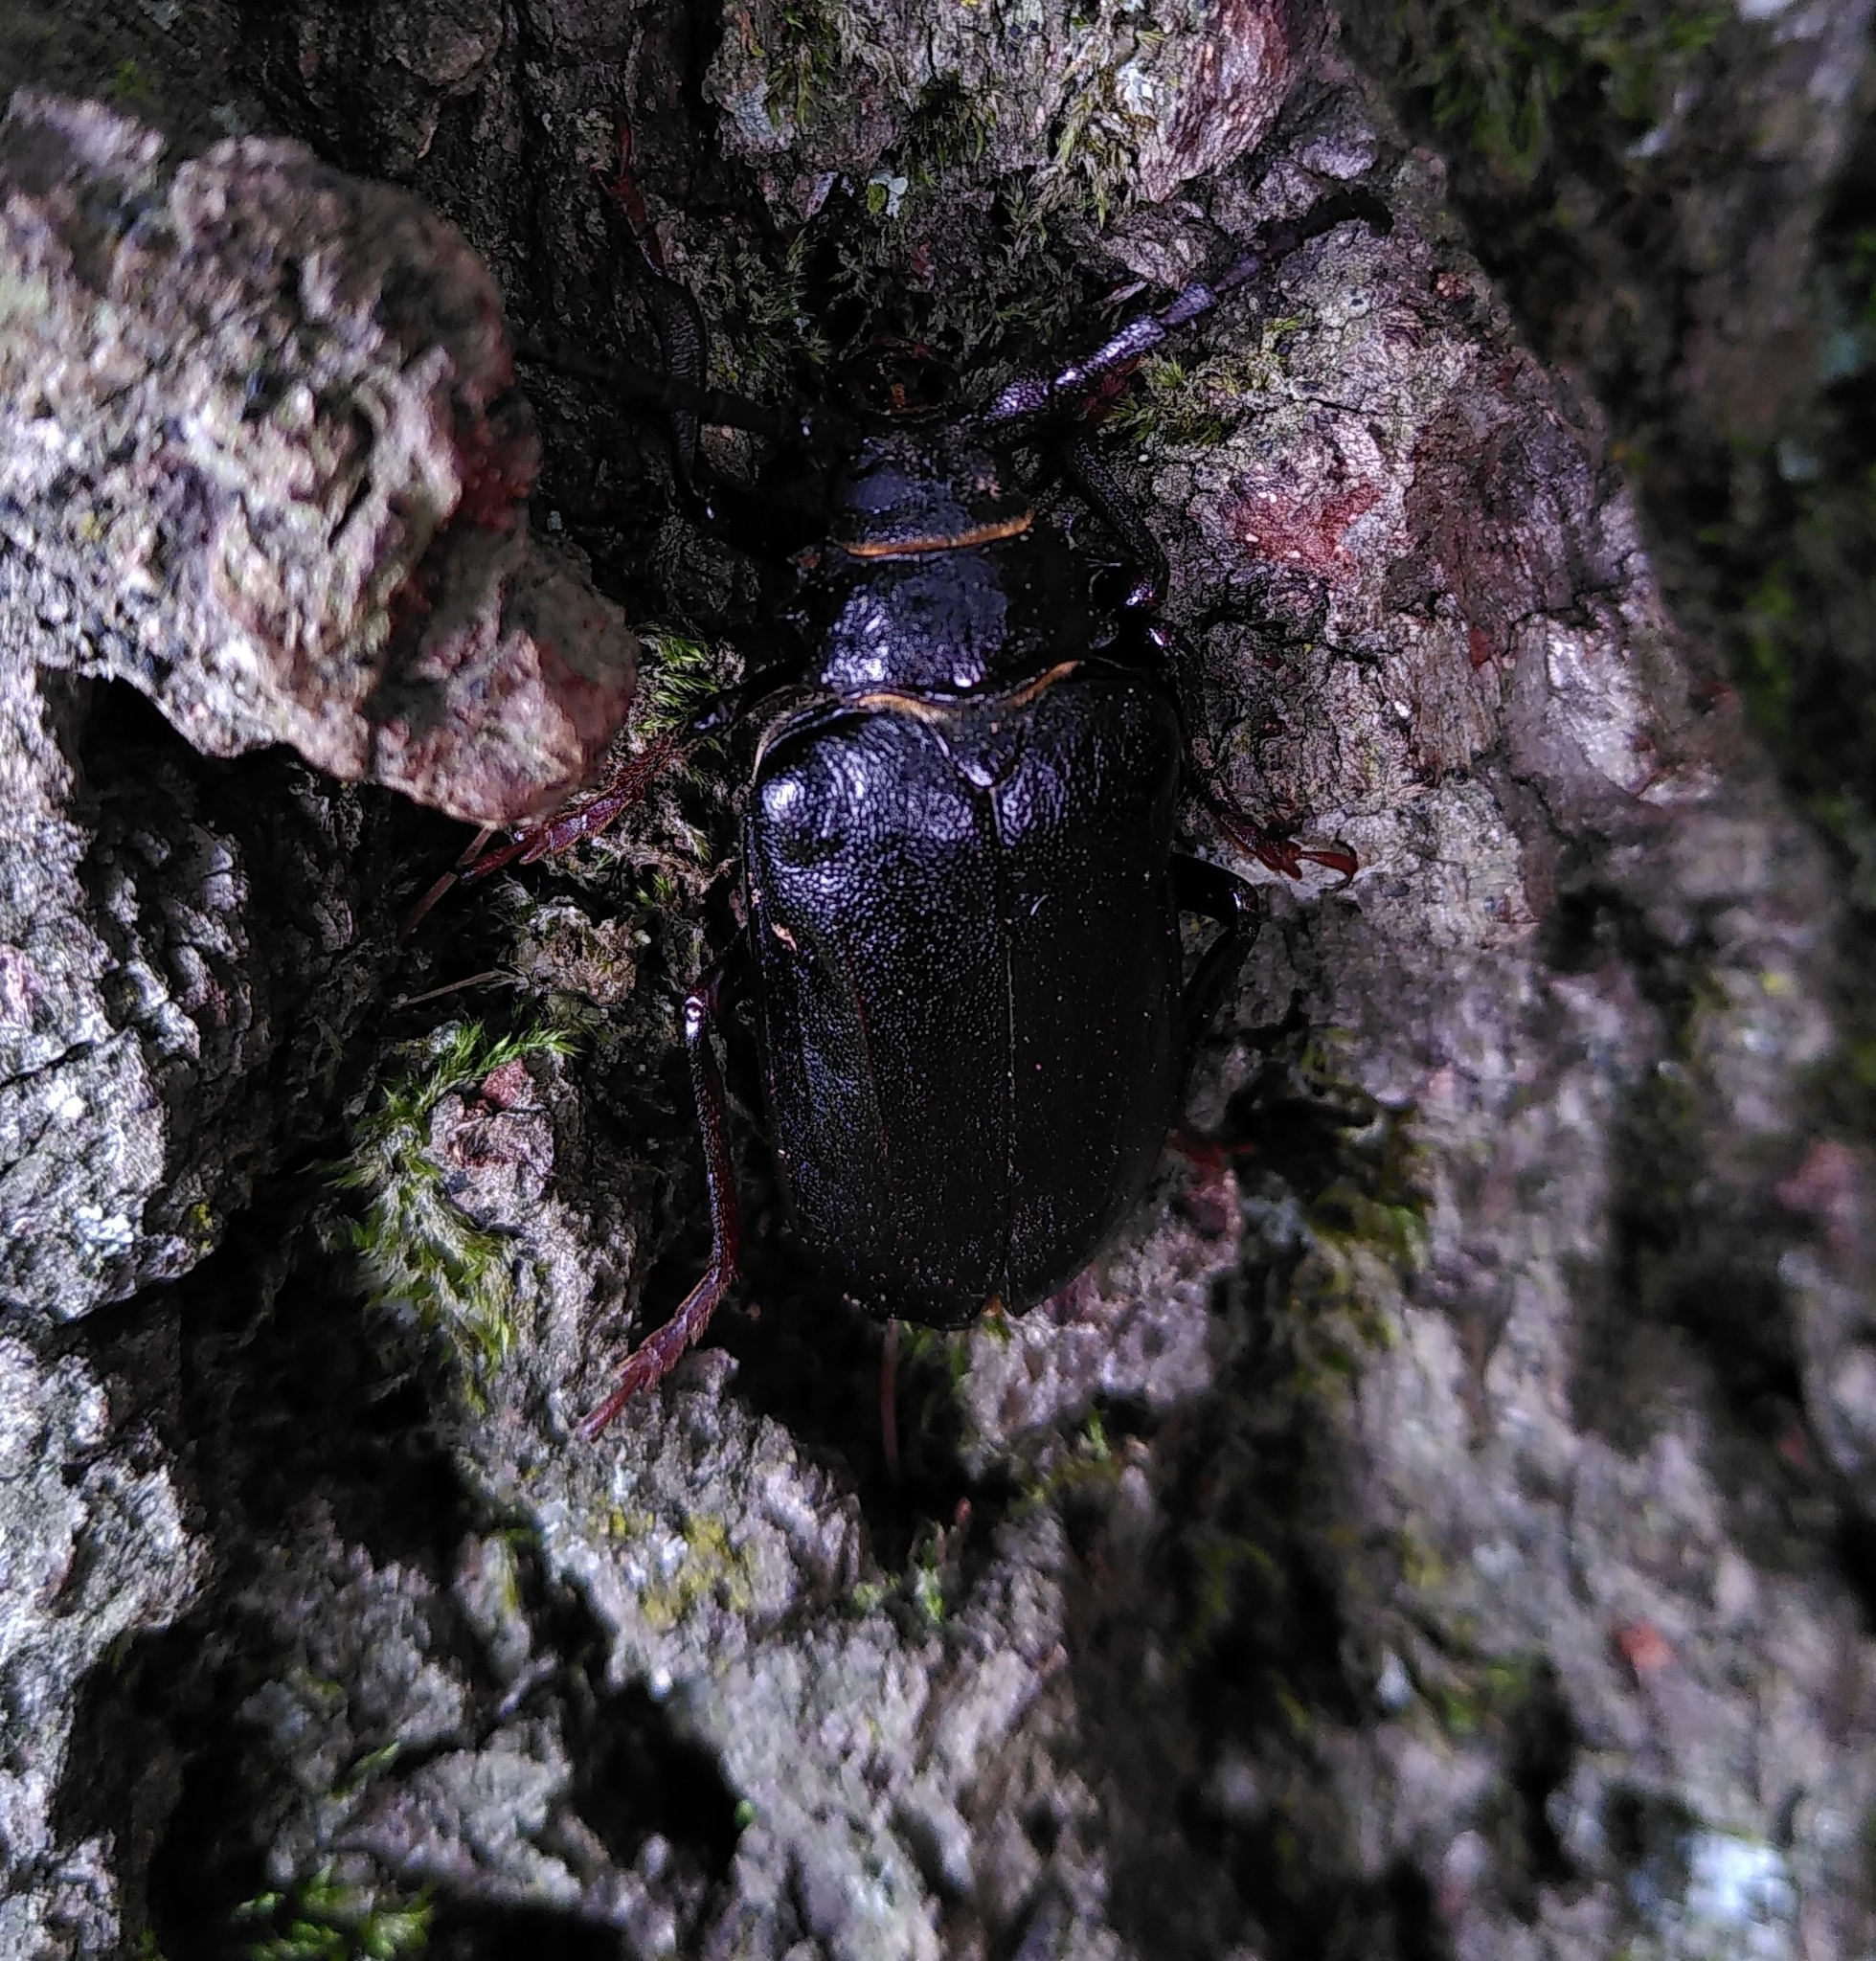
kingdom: Animalia
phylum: Arthropoda
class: Insecta
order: Coleoptera
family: Cerambycidae
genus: Prionus
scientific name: Prionus coriarius
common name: Tanner beetle
